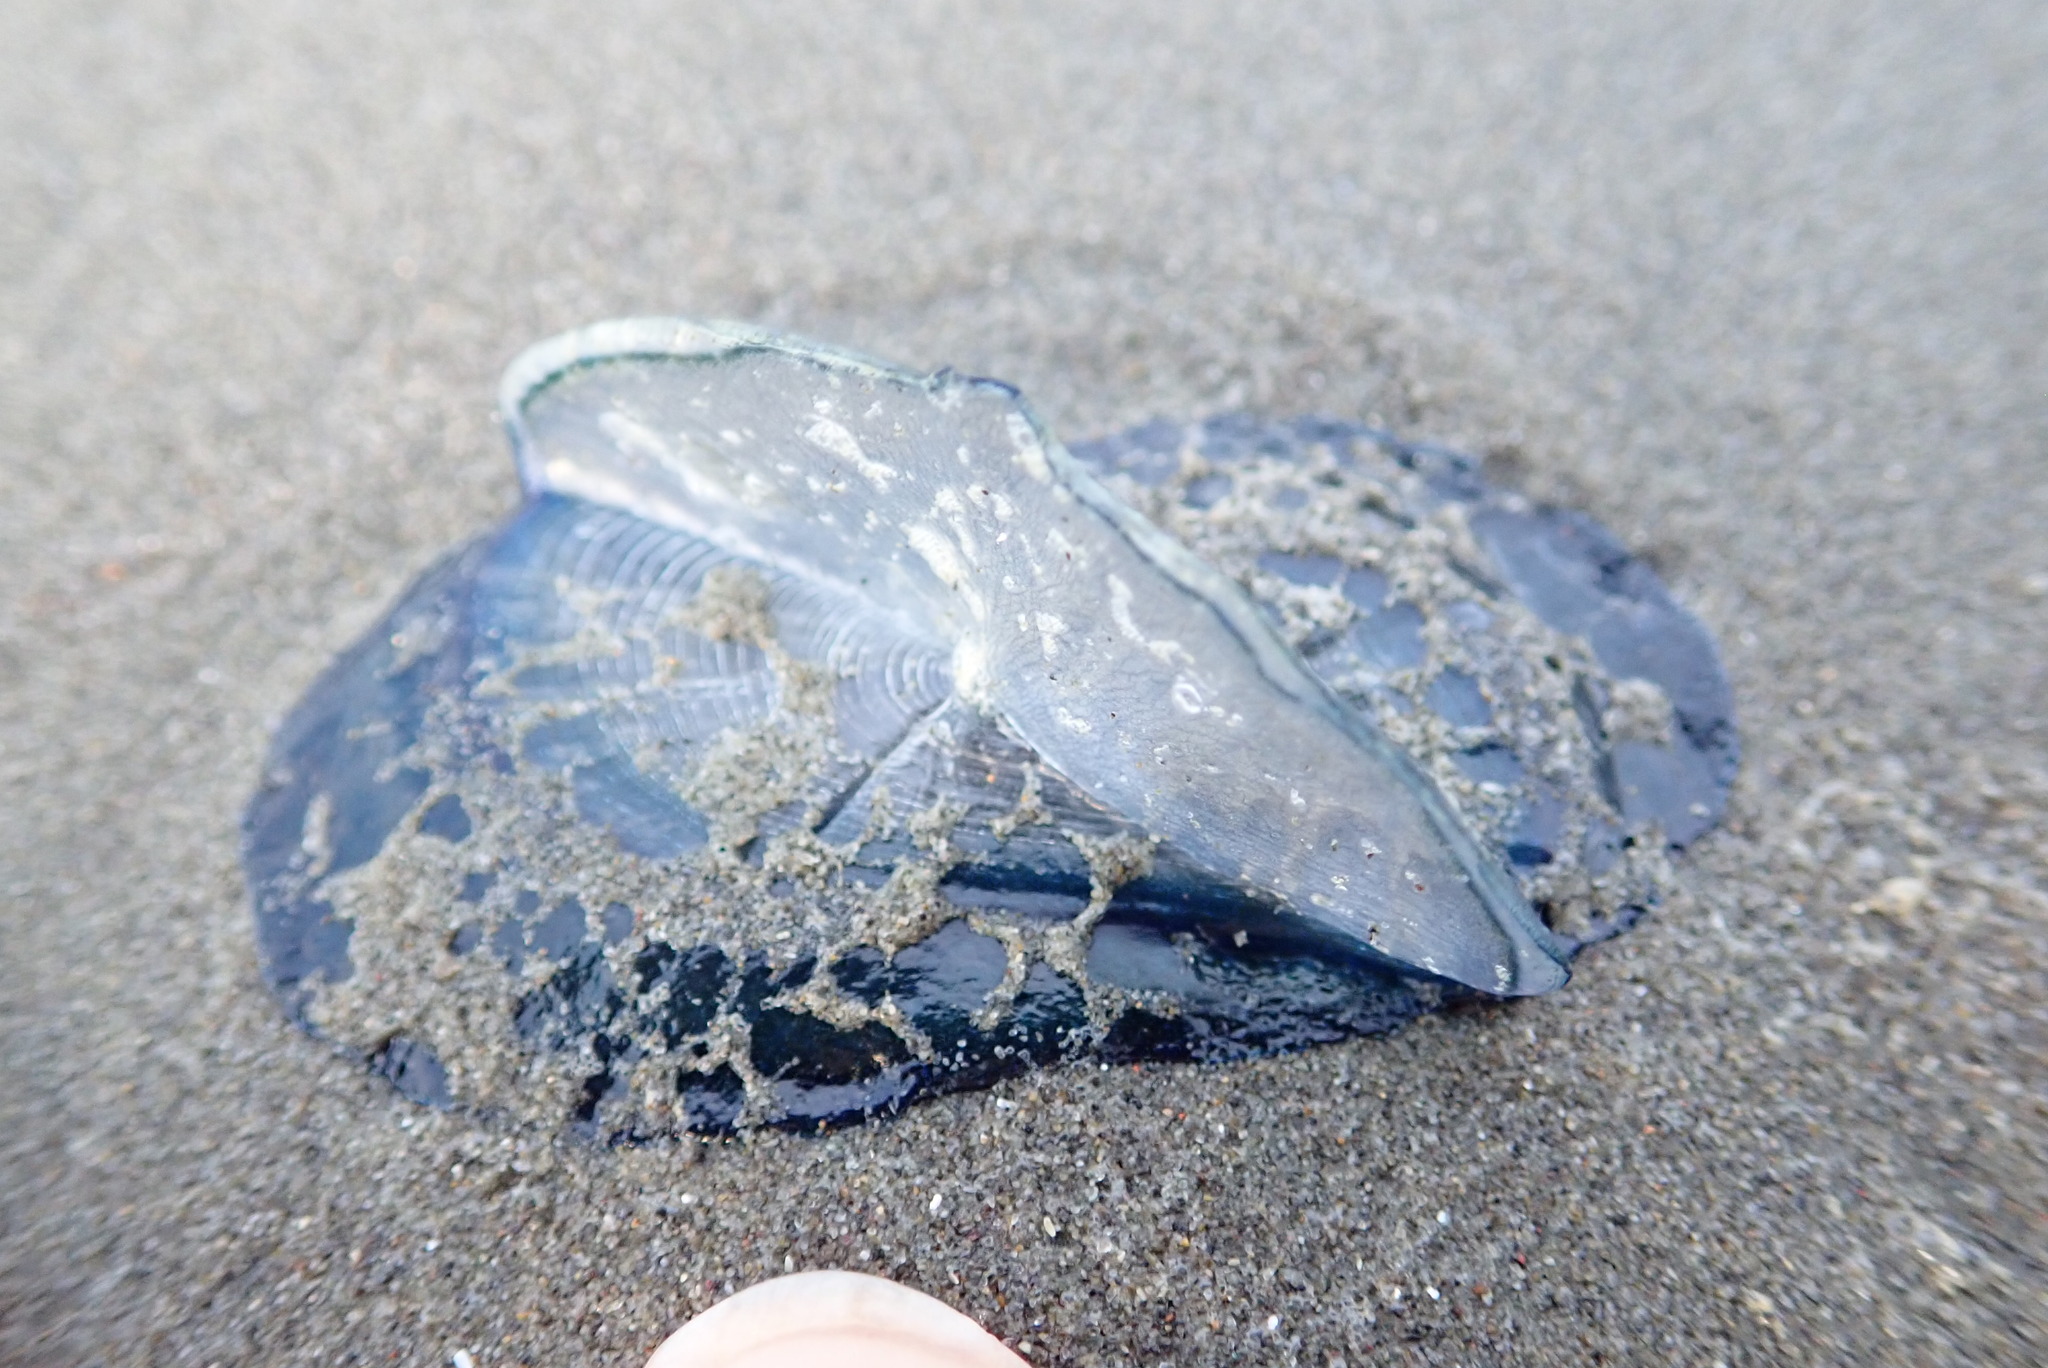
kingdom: Animalia
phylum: Cnidaria
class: Hydrozoa
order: Anthoathecata
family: Porpitidae
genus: Velella
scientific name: Velella velella
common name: By-the-wind-sailor
